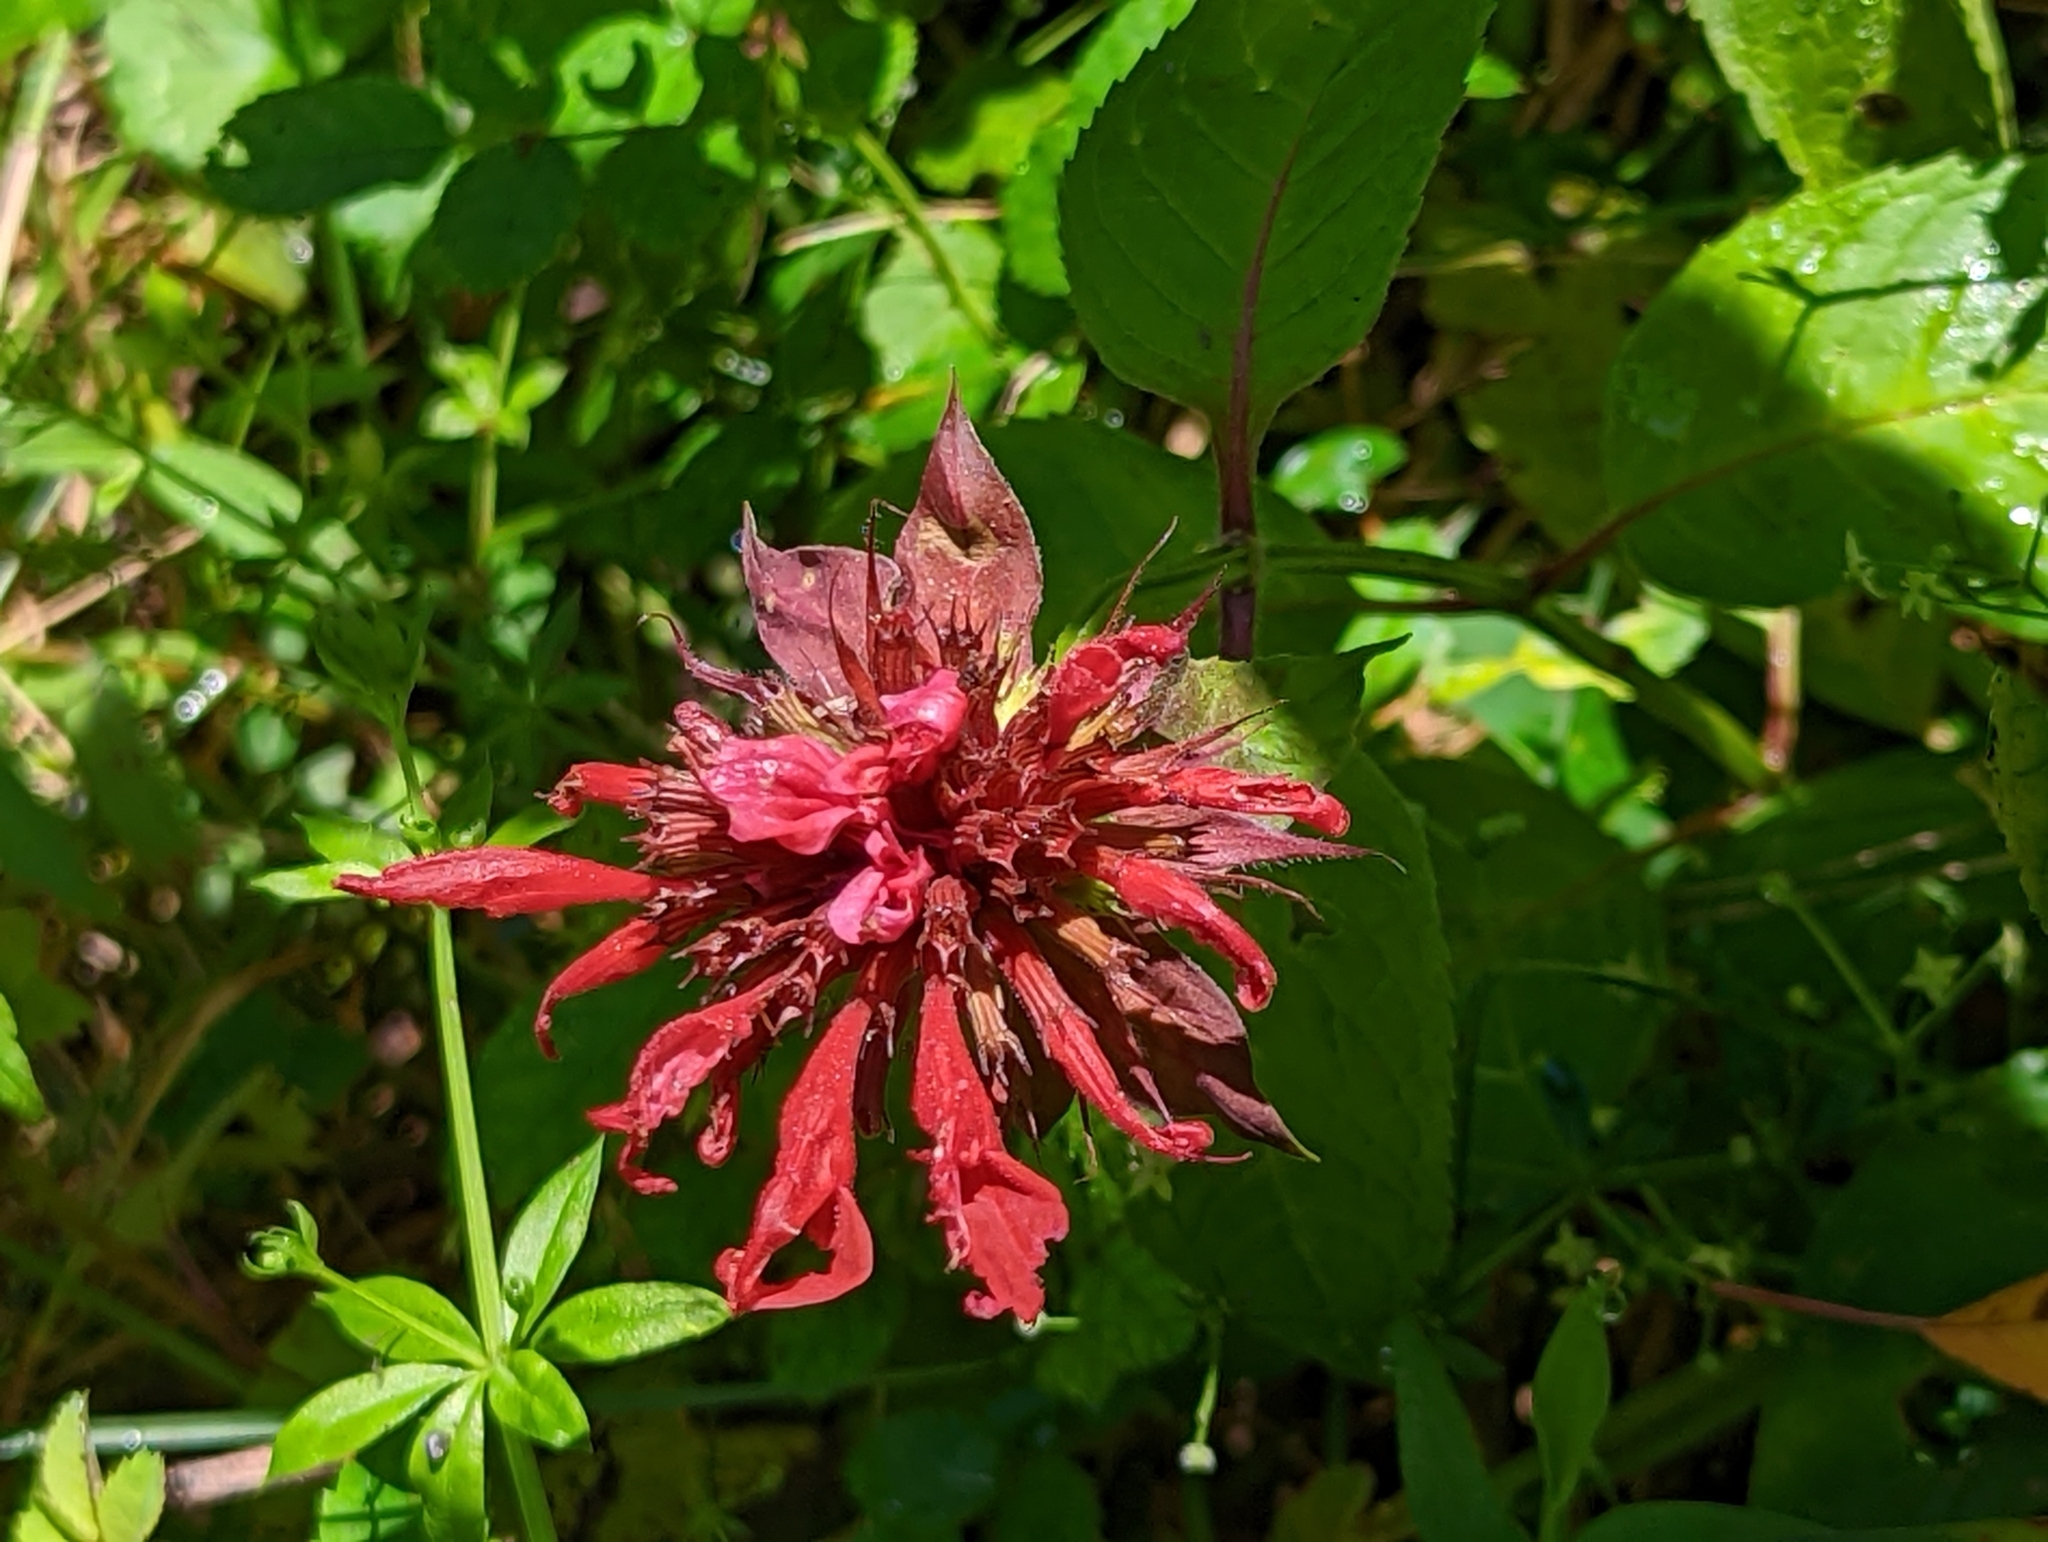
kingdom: Plantae
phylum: Tracheophyta
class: Magnoliopsida
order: Lamiales
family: Lamiaceae
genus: Monarda
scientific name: Monarda didyma
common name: Beebalm
